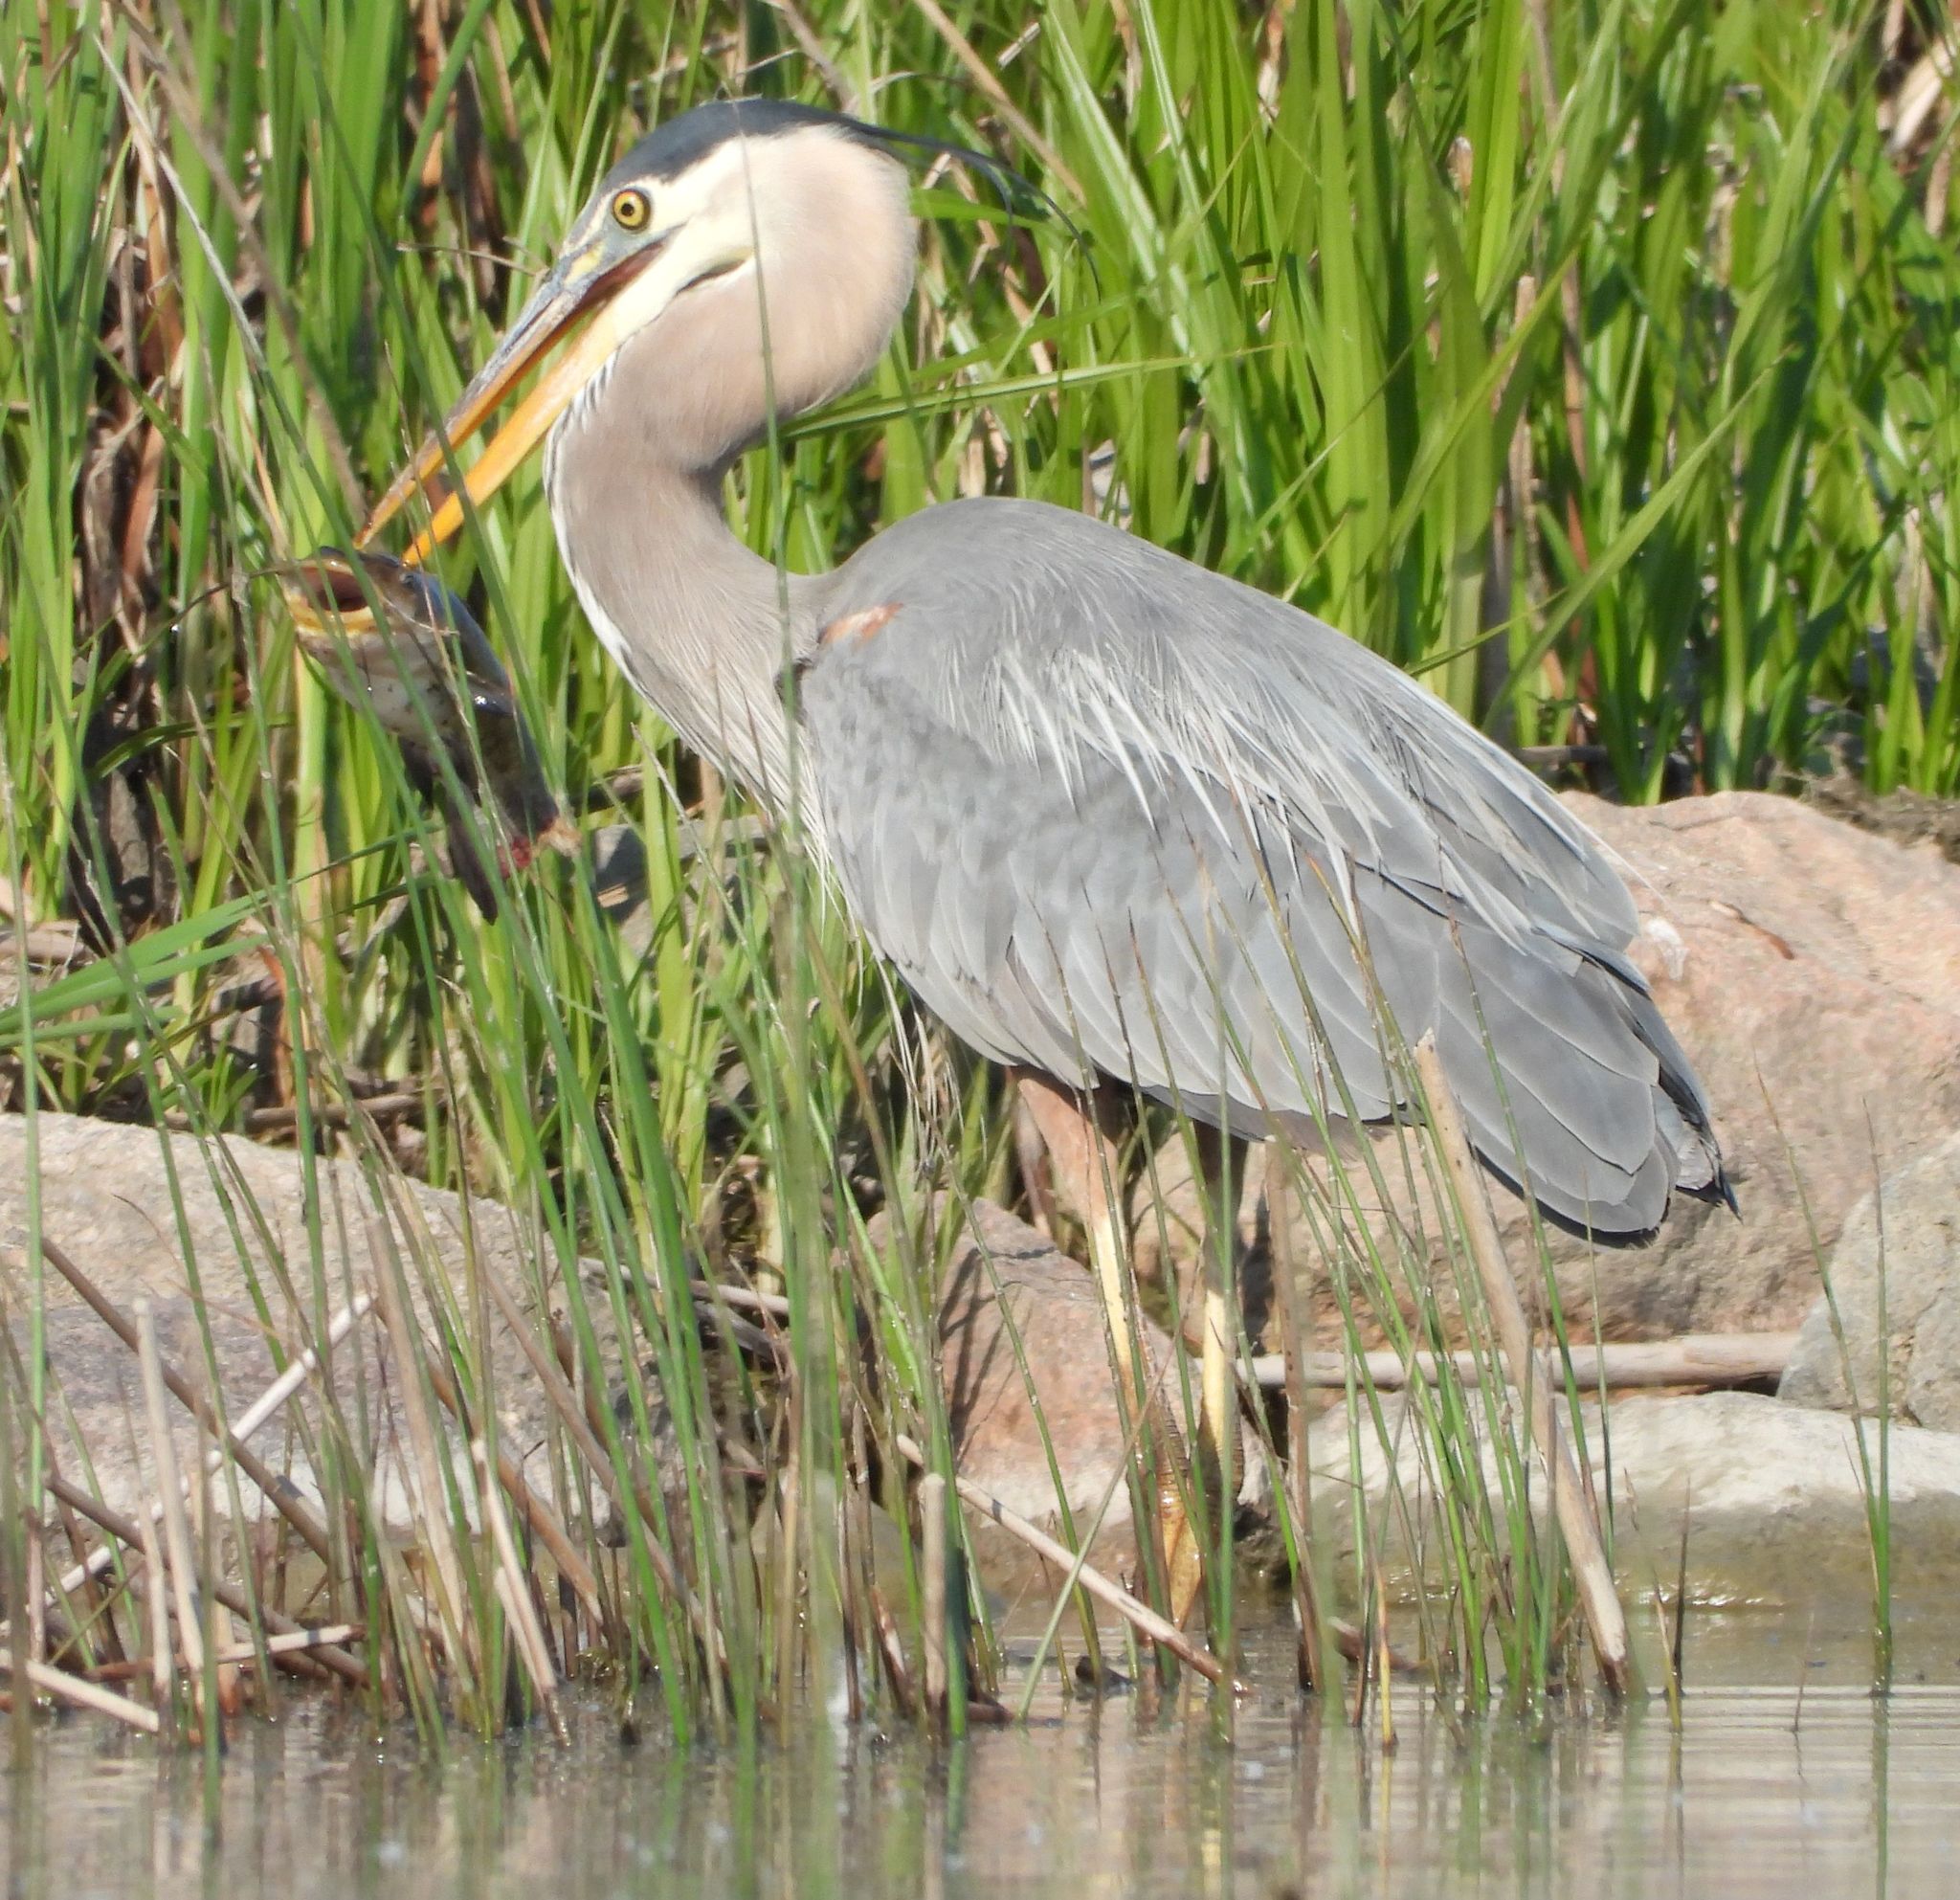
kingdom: Animalia
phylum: Chordata
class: Aves
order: Pelecaniformes
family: Ardeidae
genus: Ardea
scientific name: Ardea herodias
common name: Great blue heron
